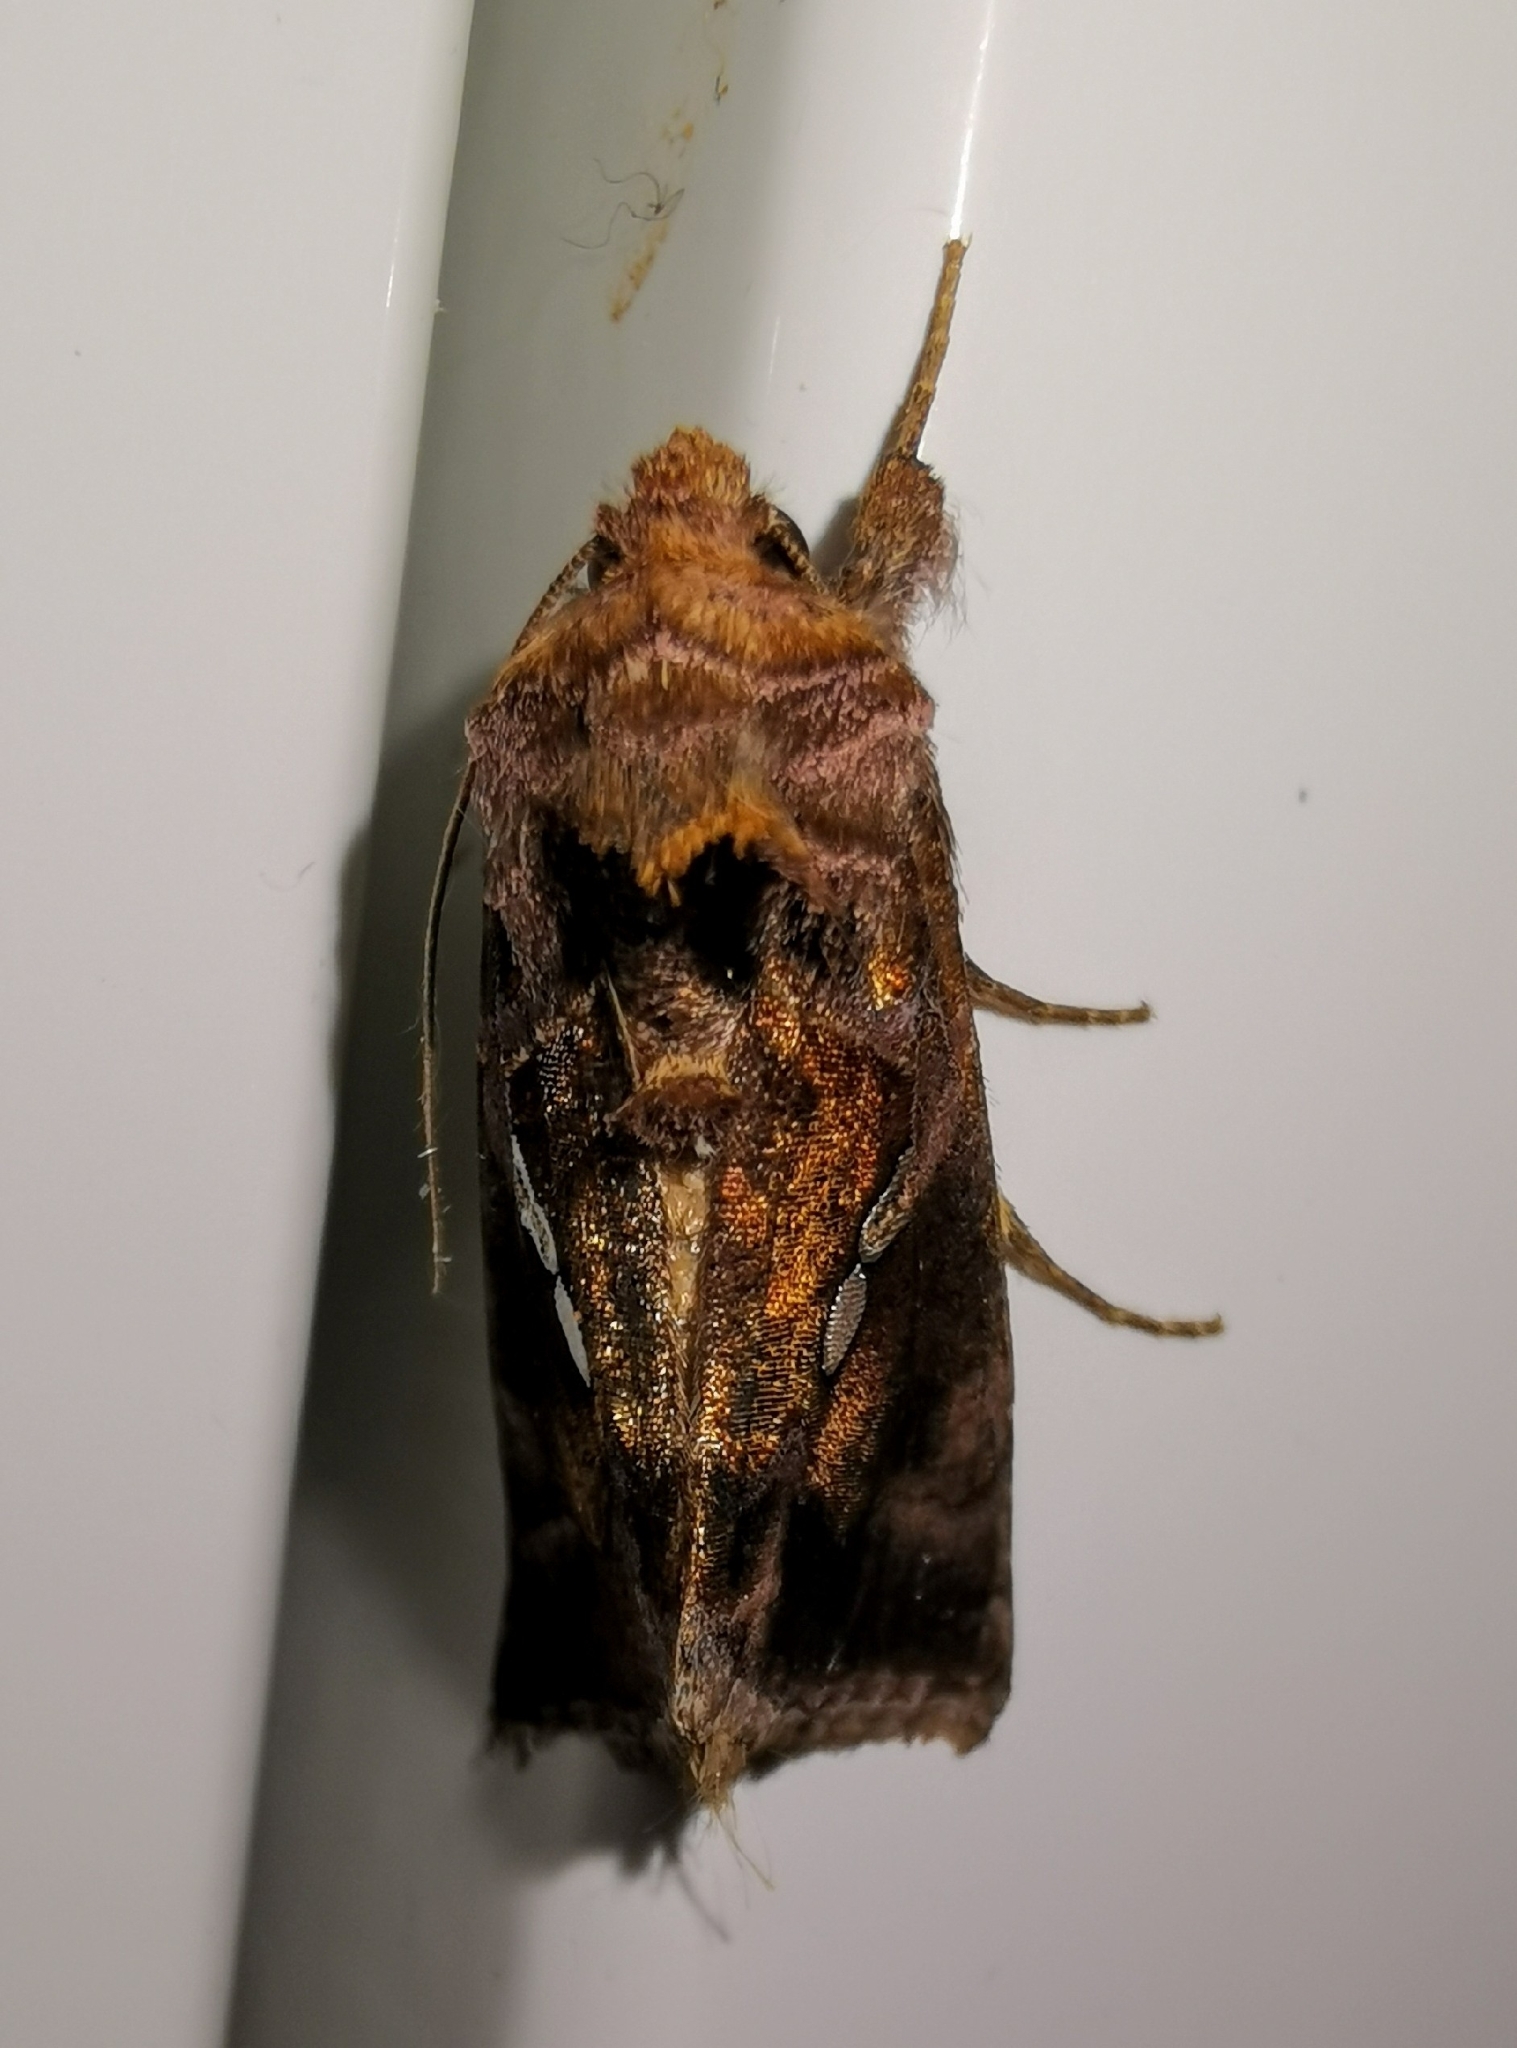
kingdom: Animalia
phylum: Arthropoda
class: Insecta
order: Lepidoptera
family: Noctuidae
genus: Chrysodeixis
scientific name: Chrysodeixis chalcites
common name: Golden twin-spot
